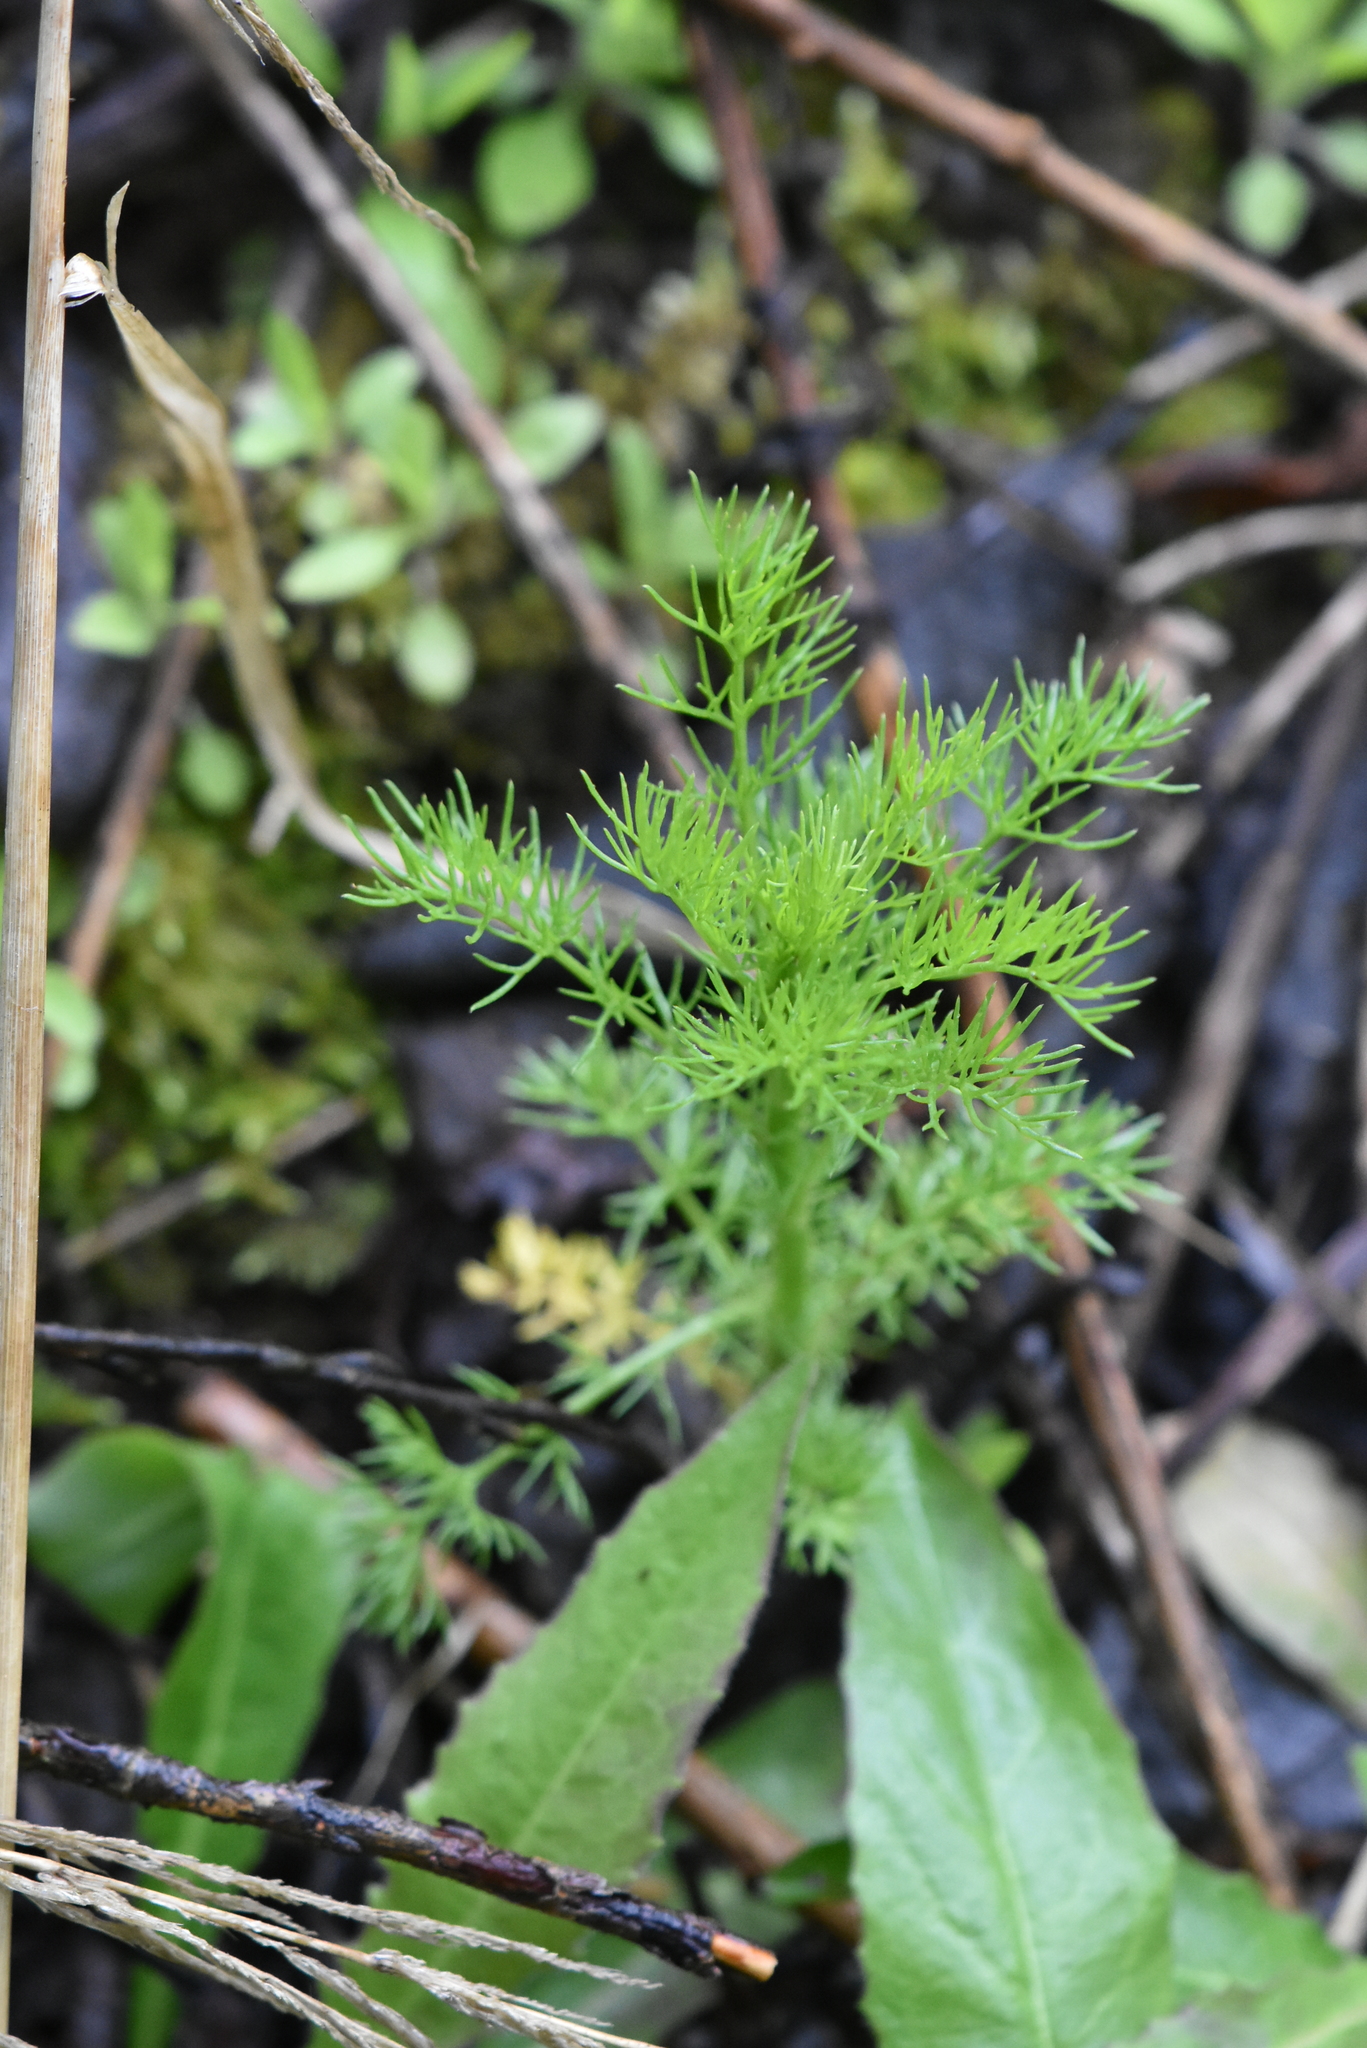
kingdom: Plantae
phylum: Tracheophyta
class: Magnoliopsida
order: Asterales
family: Asteraceae
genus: Tripleurospermum
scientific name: Tripleurospermum inodorum
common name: Scentless mayweed
